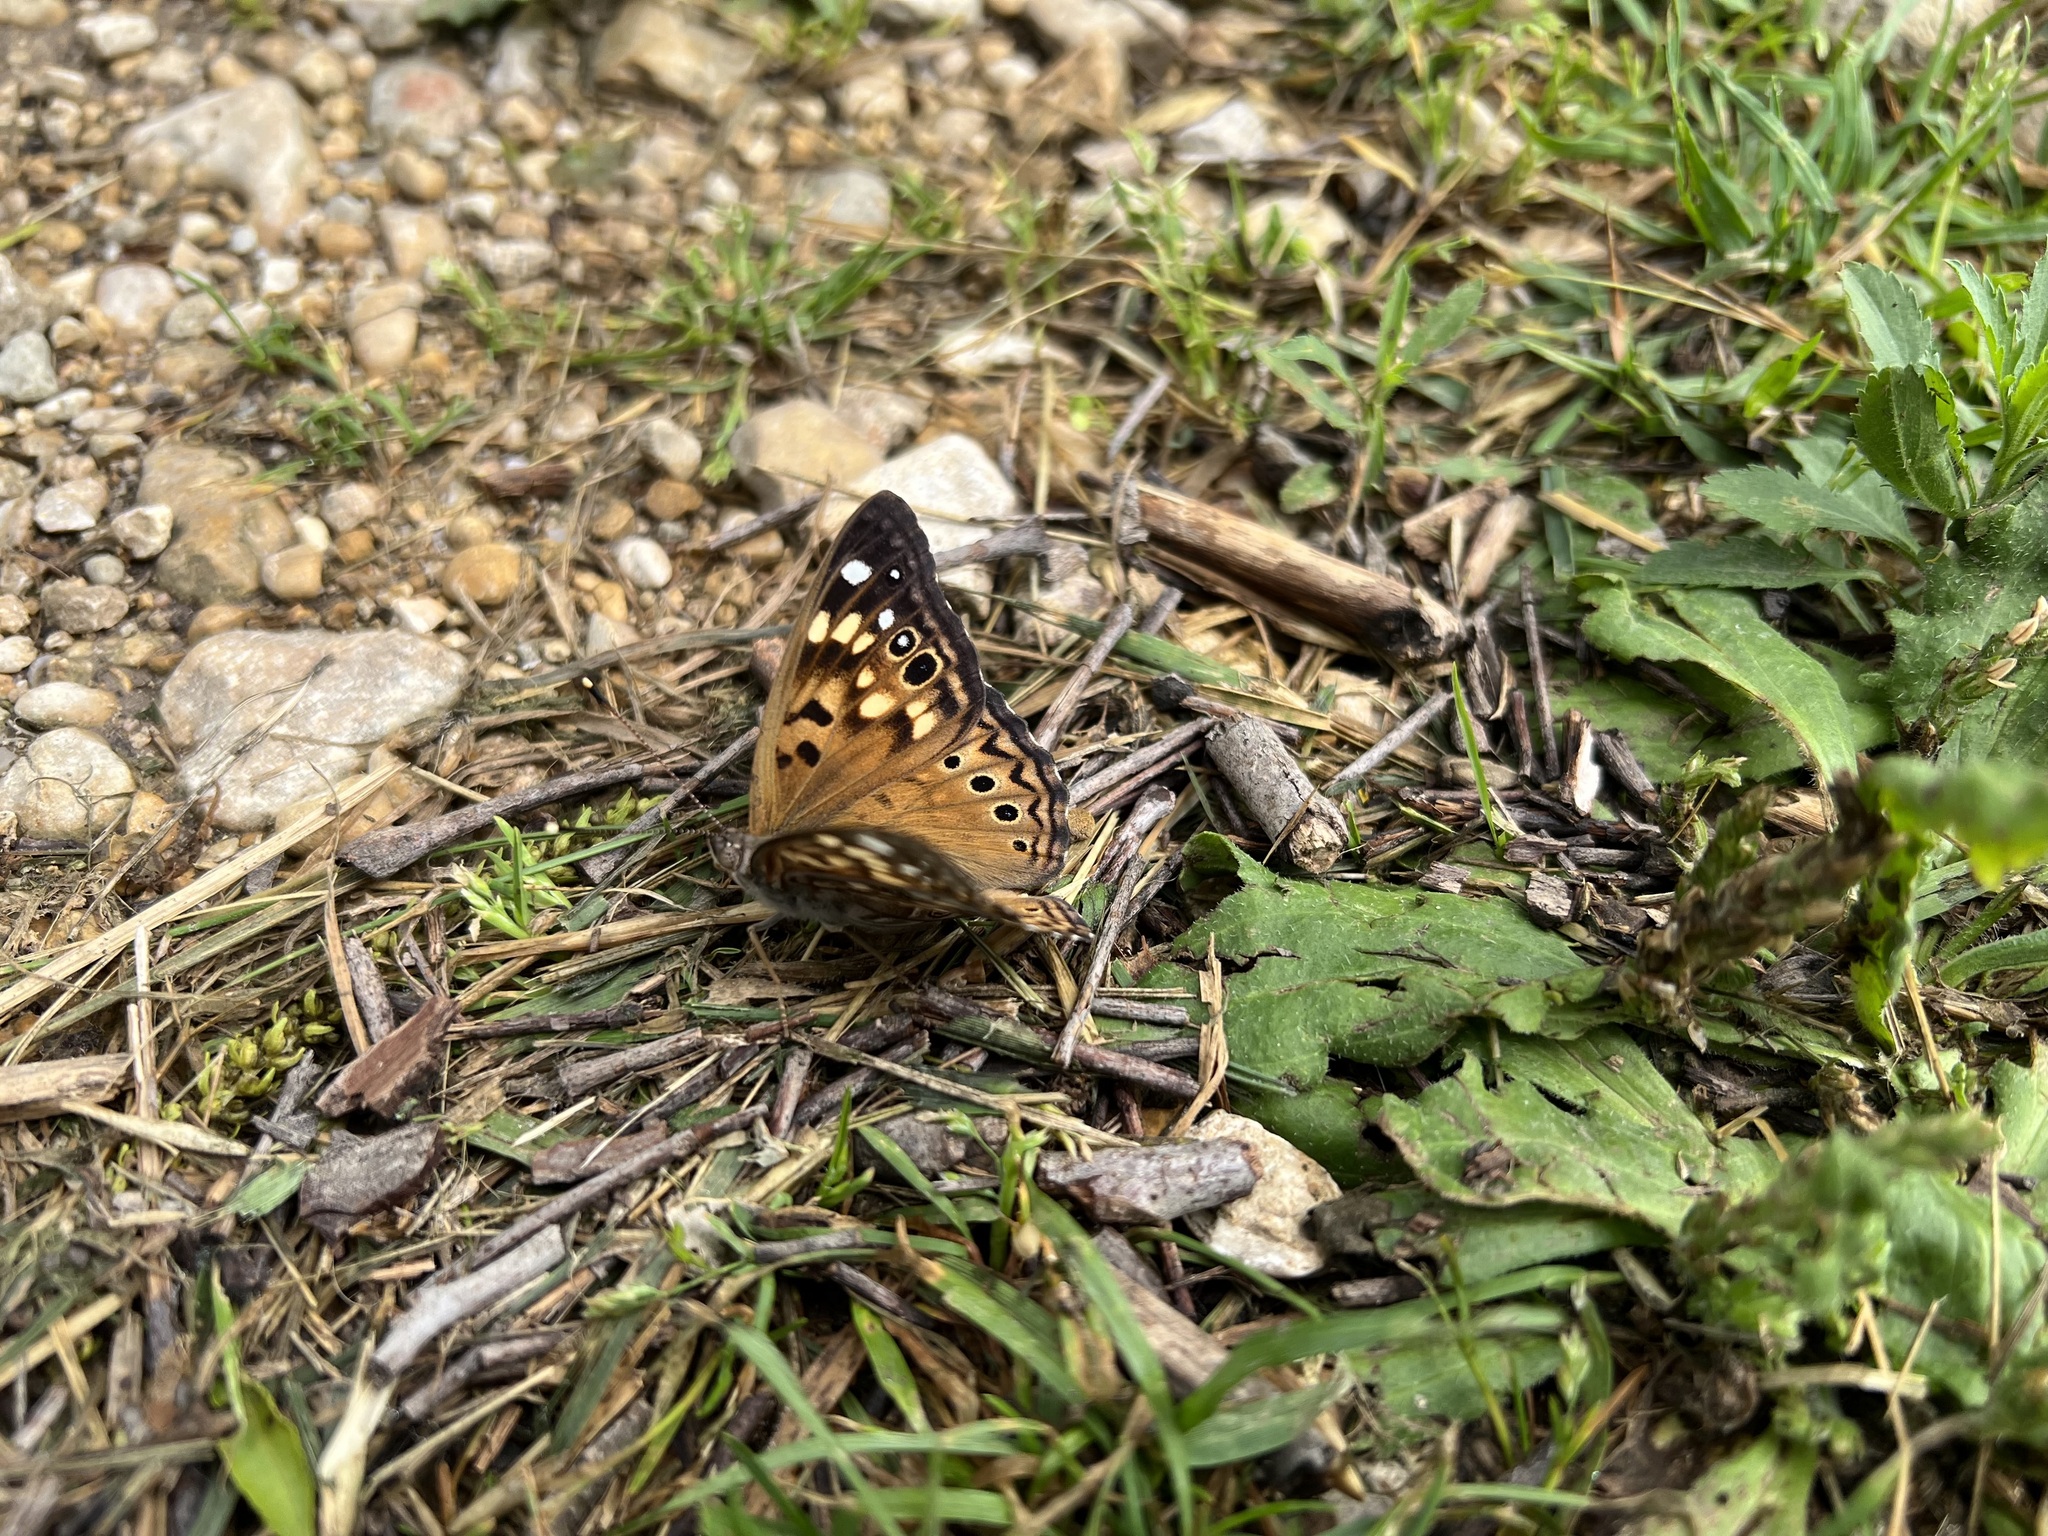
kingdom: Animalia
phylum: Arthropoda
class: Insecta
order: Lepidoptera
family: Nymphalidae
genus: Asterocampa
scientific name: Asterocampa celtis
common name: Hackberry emperor
